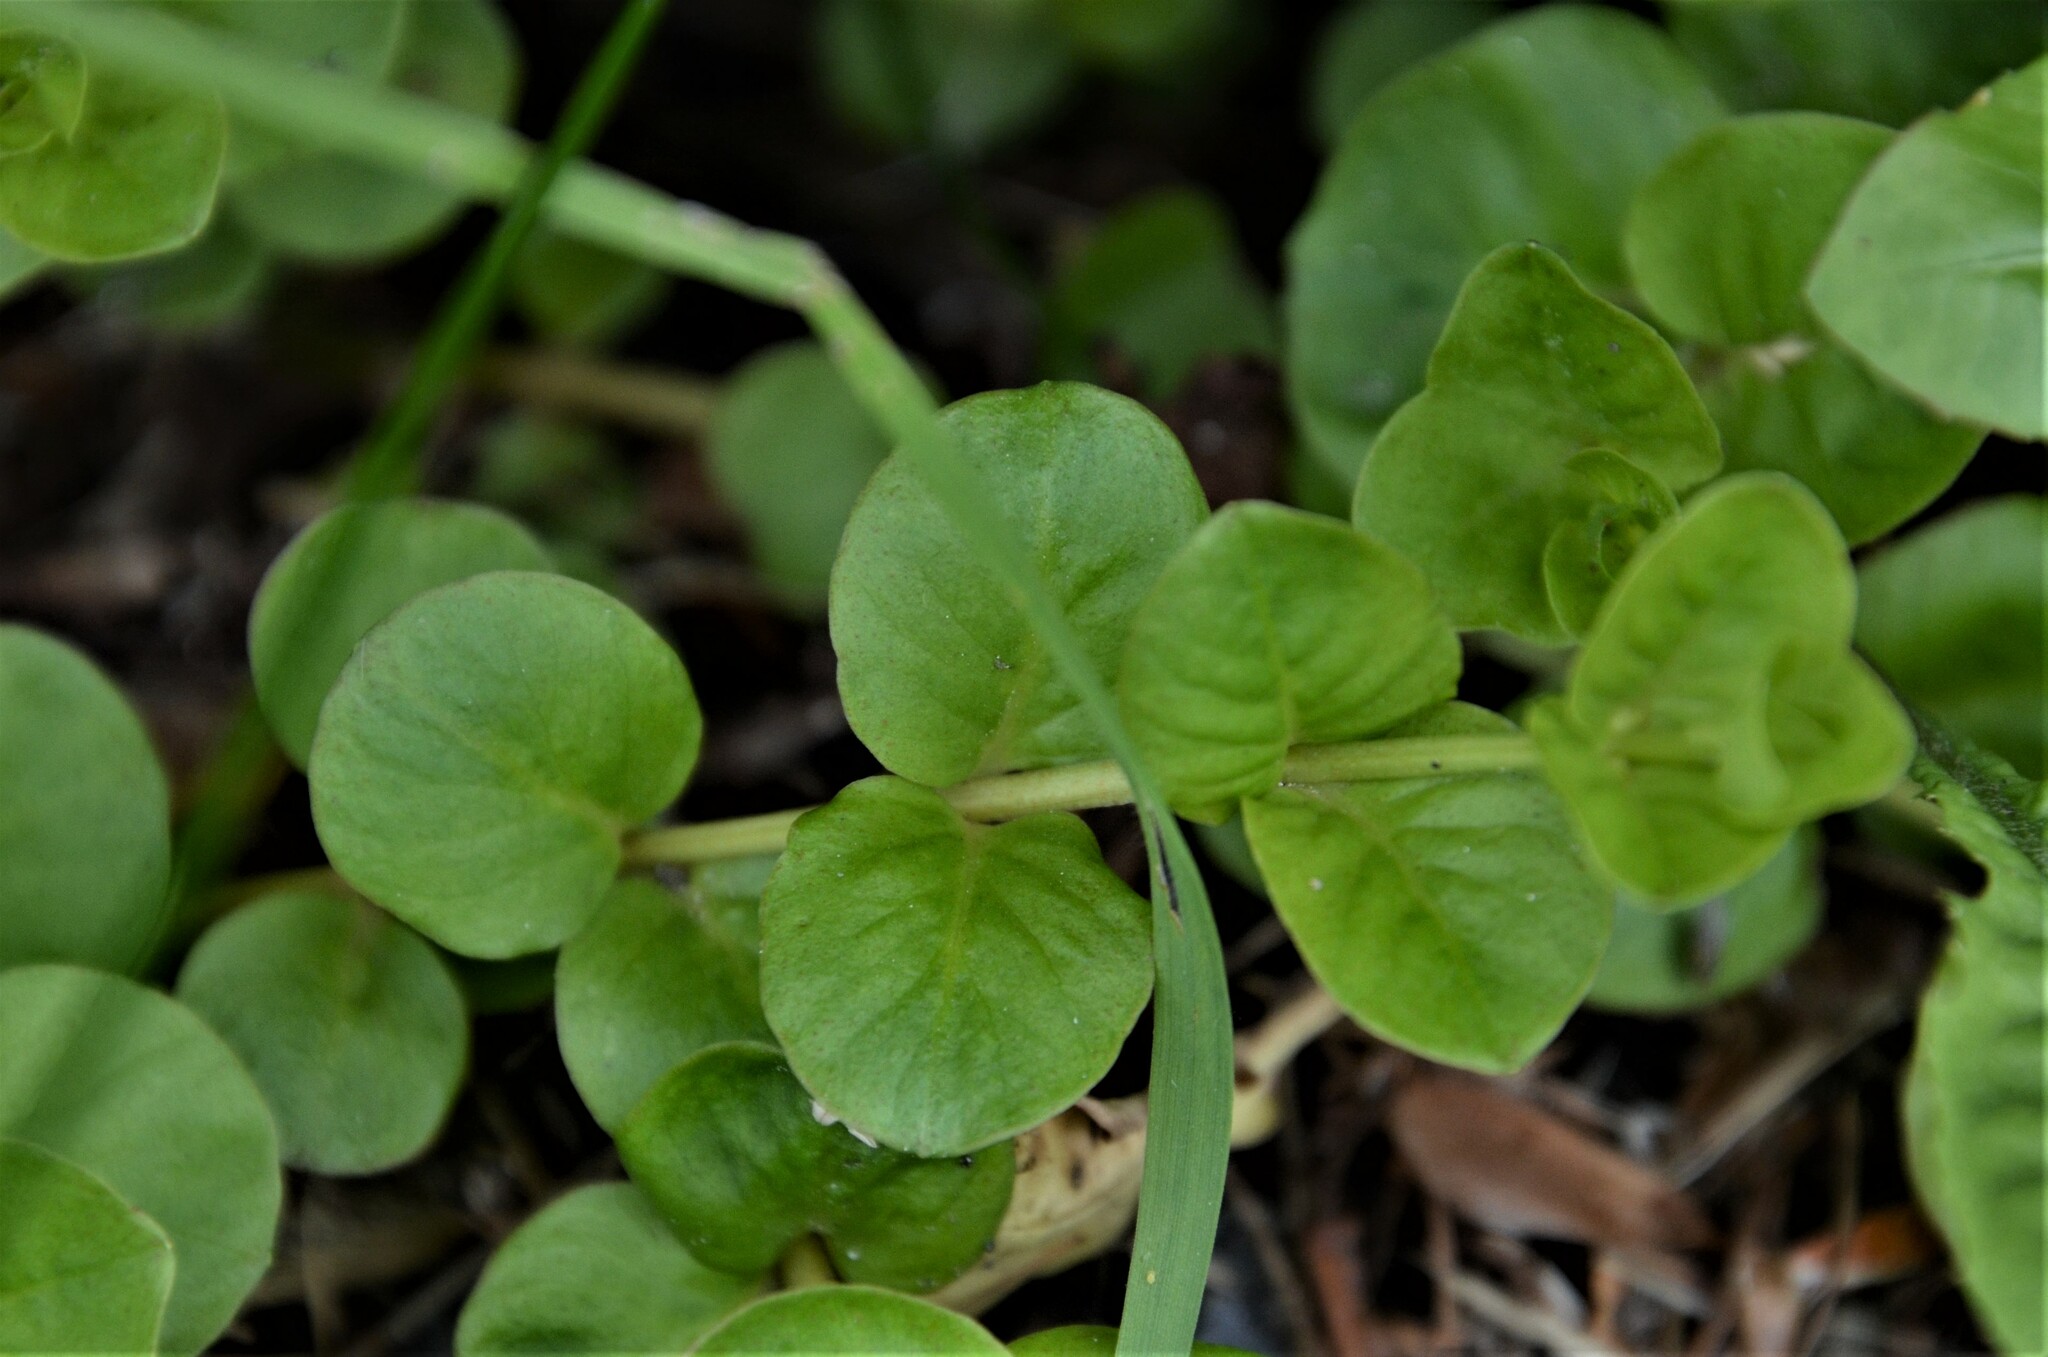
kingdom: Plantae
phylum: Tracheophyta
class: Magnoliopsida
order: Ericales
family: Primulaceae
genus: Lysimachia
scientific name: Lysimachia nummularia
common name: Moneywort
